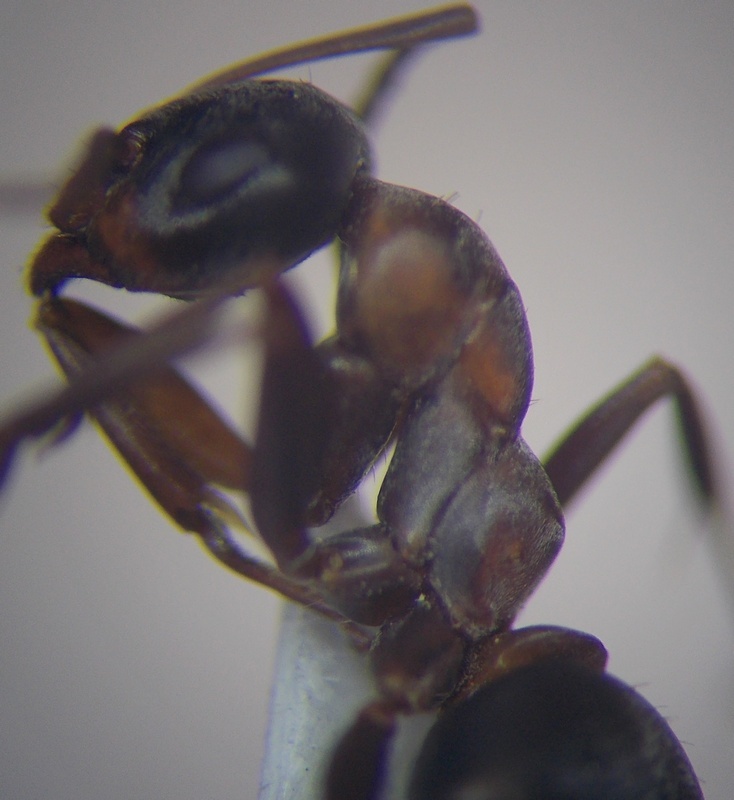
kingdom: Animalia
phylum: Arthropoda
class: Insecta
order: Hymenoptera
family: Formicidae
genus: Formica
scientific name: Formica cunicularia
